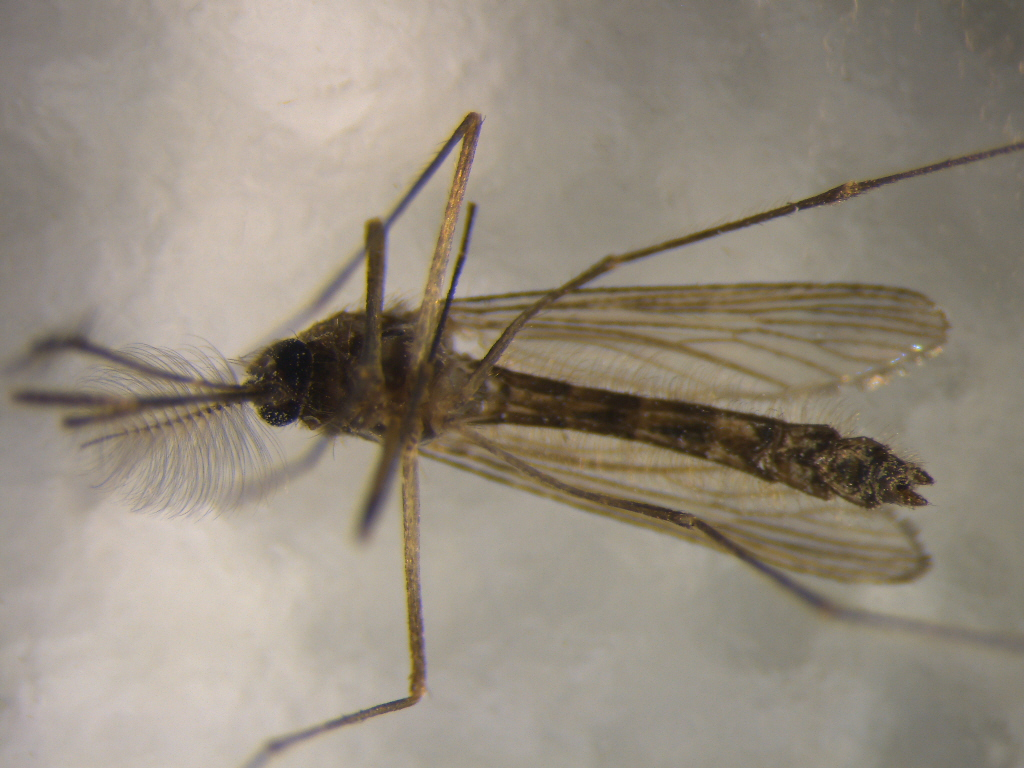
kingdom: Animalia
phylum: Arthropoda
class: Insecta
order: Diptera
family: Culicidae
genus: Culex
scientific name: Culex pervigilans
